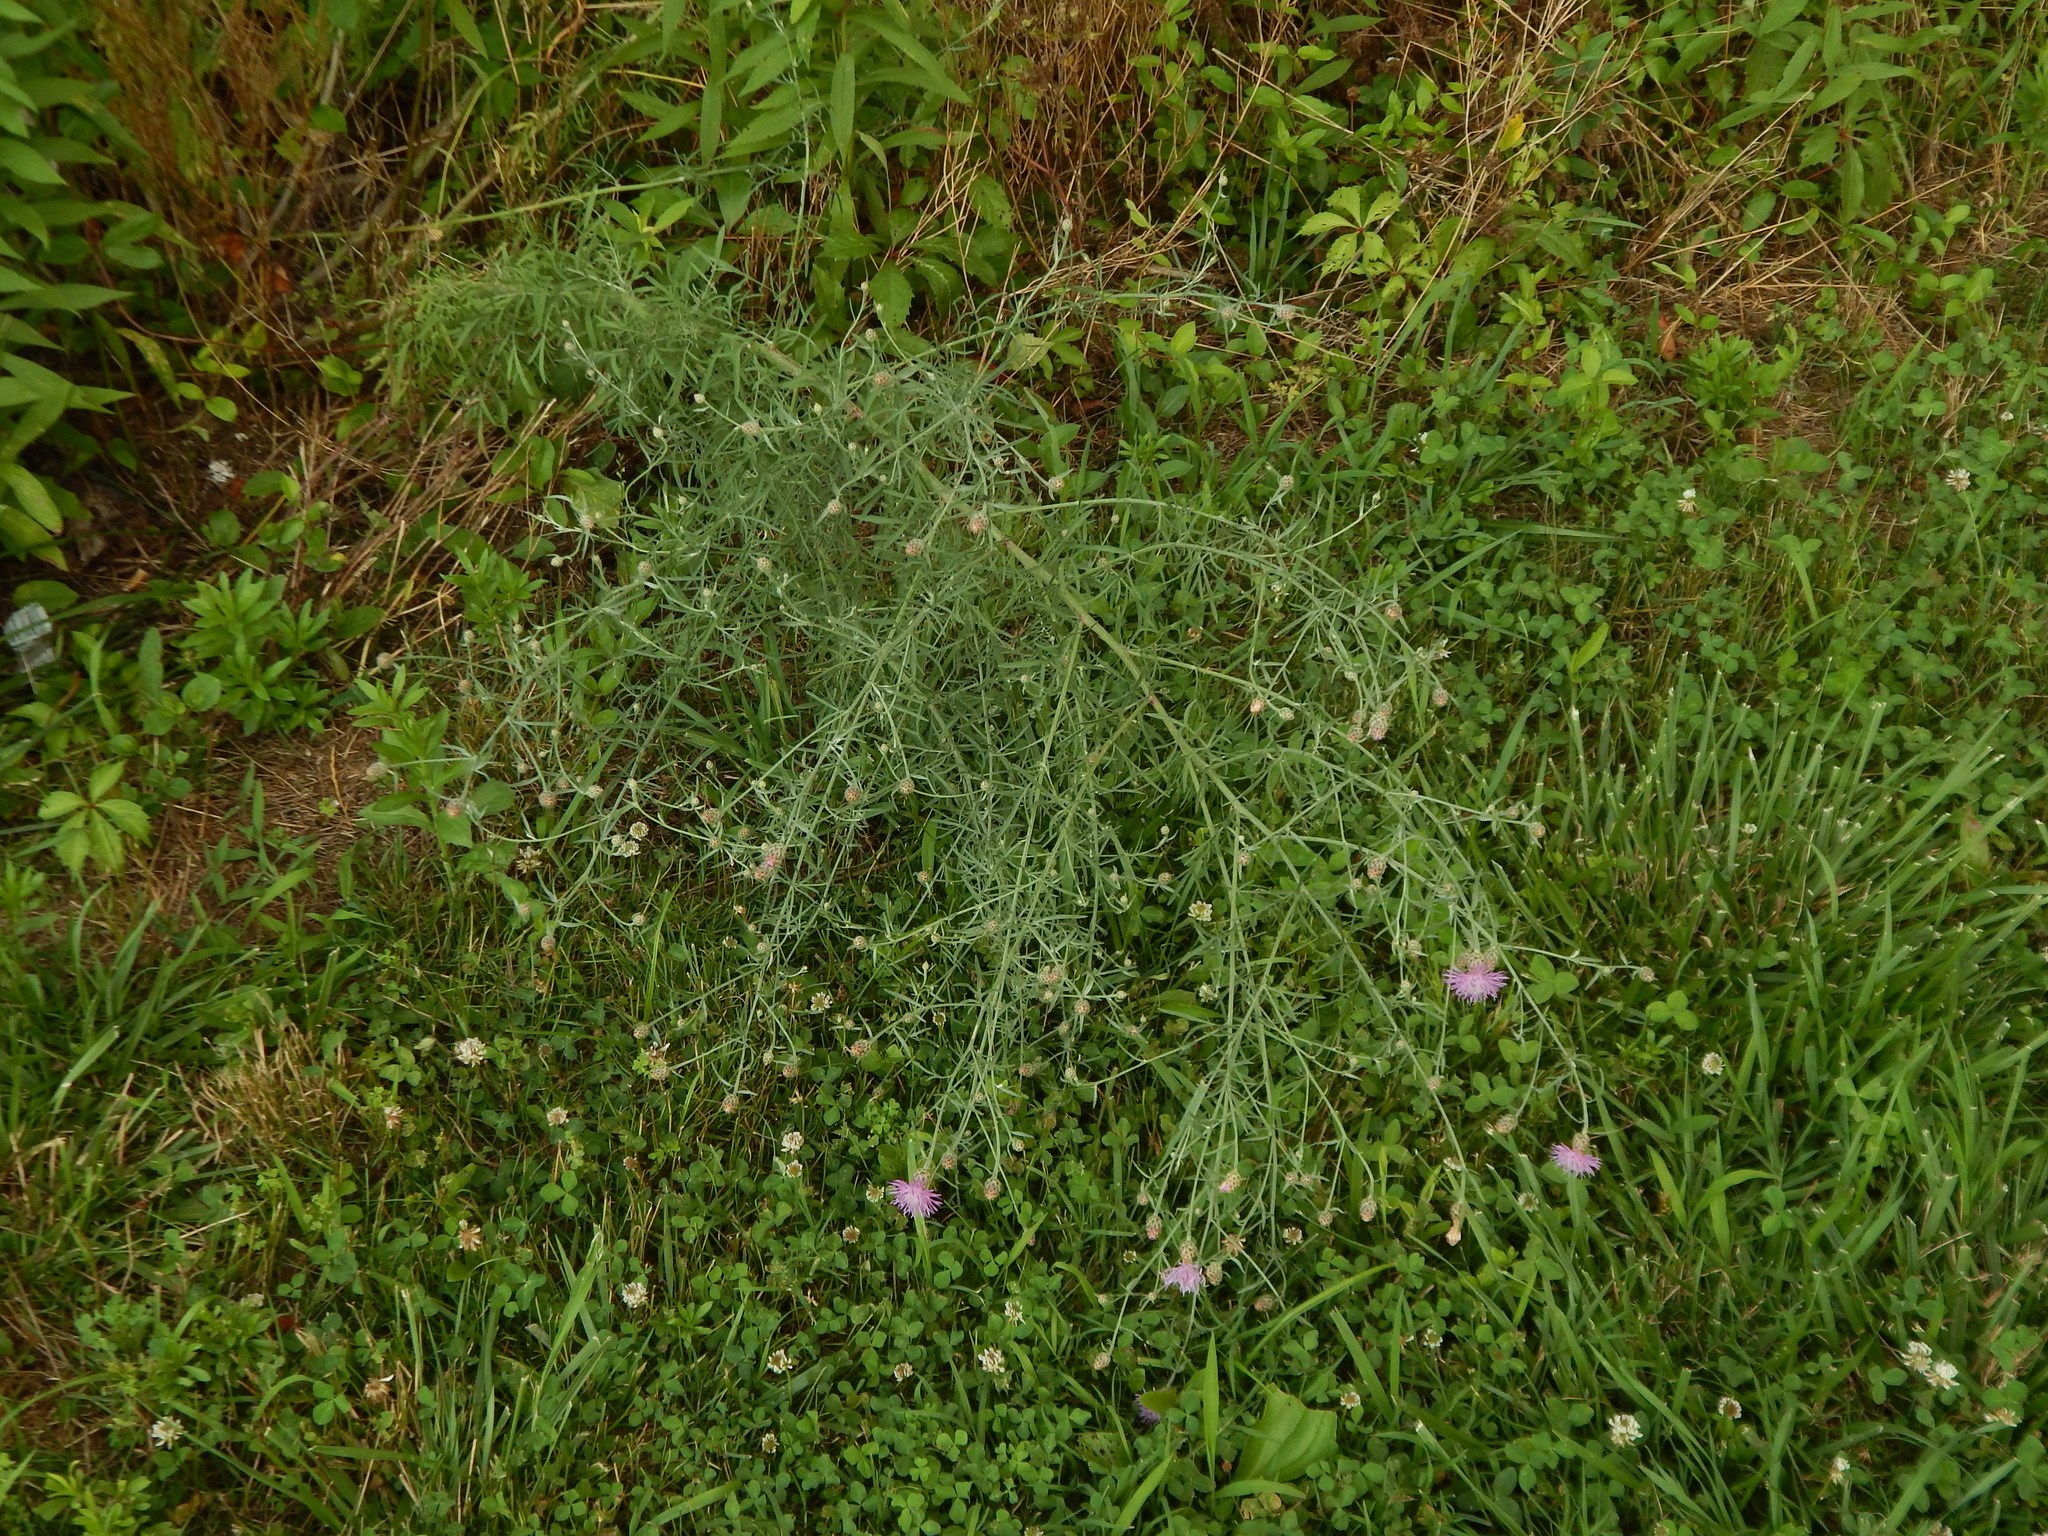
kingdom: Plantae
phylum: Tracheophyta
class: Magnoliopsida
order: Asterales
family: Asteraceae
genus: Centaurea
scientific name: Centaurea
